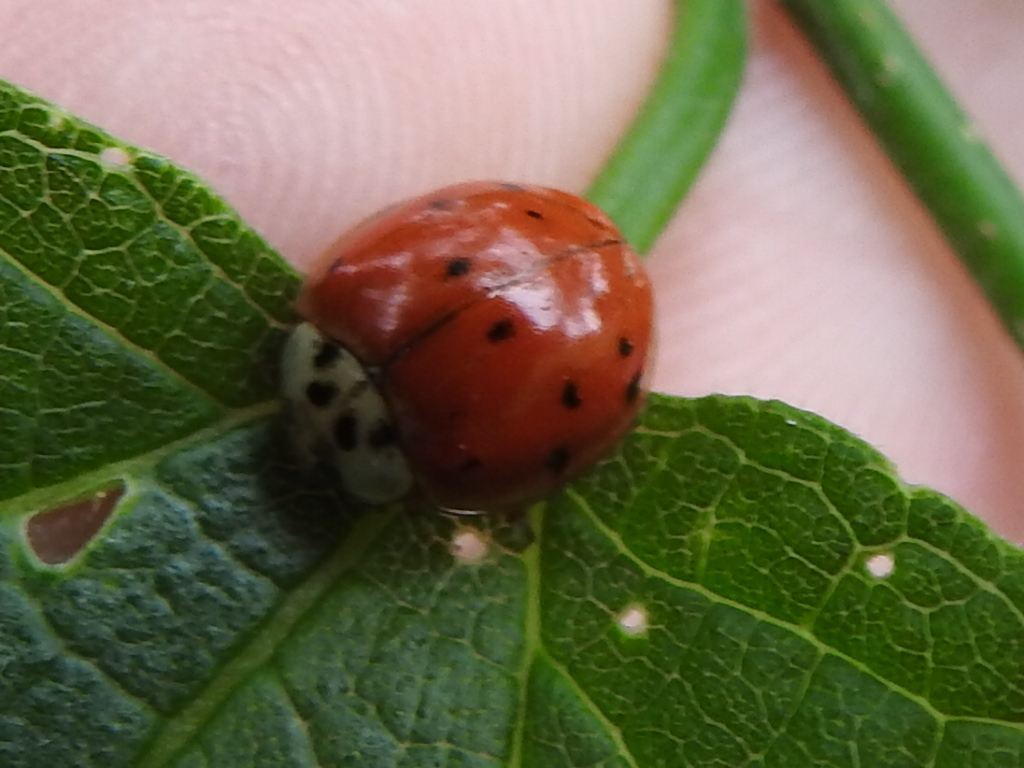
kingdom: Animalia
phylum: Arthropoda
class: Insecta
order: Coleoptera
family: Coccinellidae
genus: Harmonia
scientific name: Harmonia axyridis
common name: Harlequin ladybird
